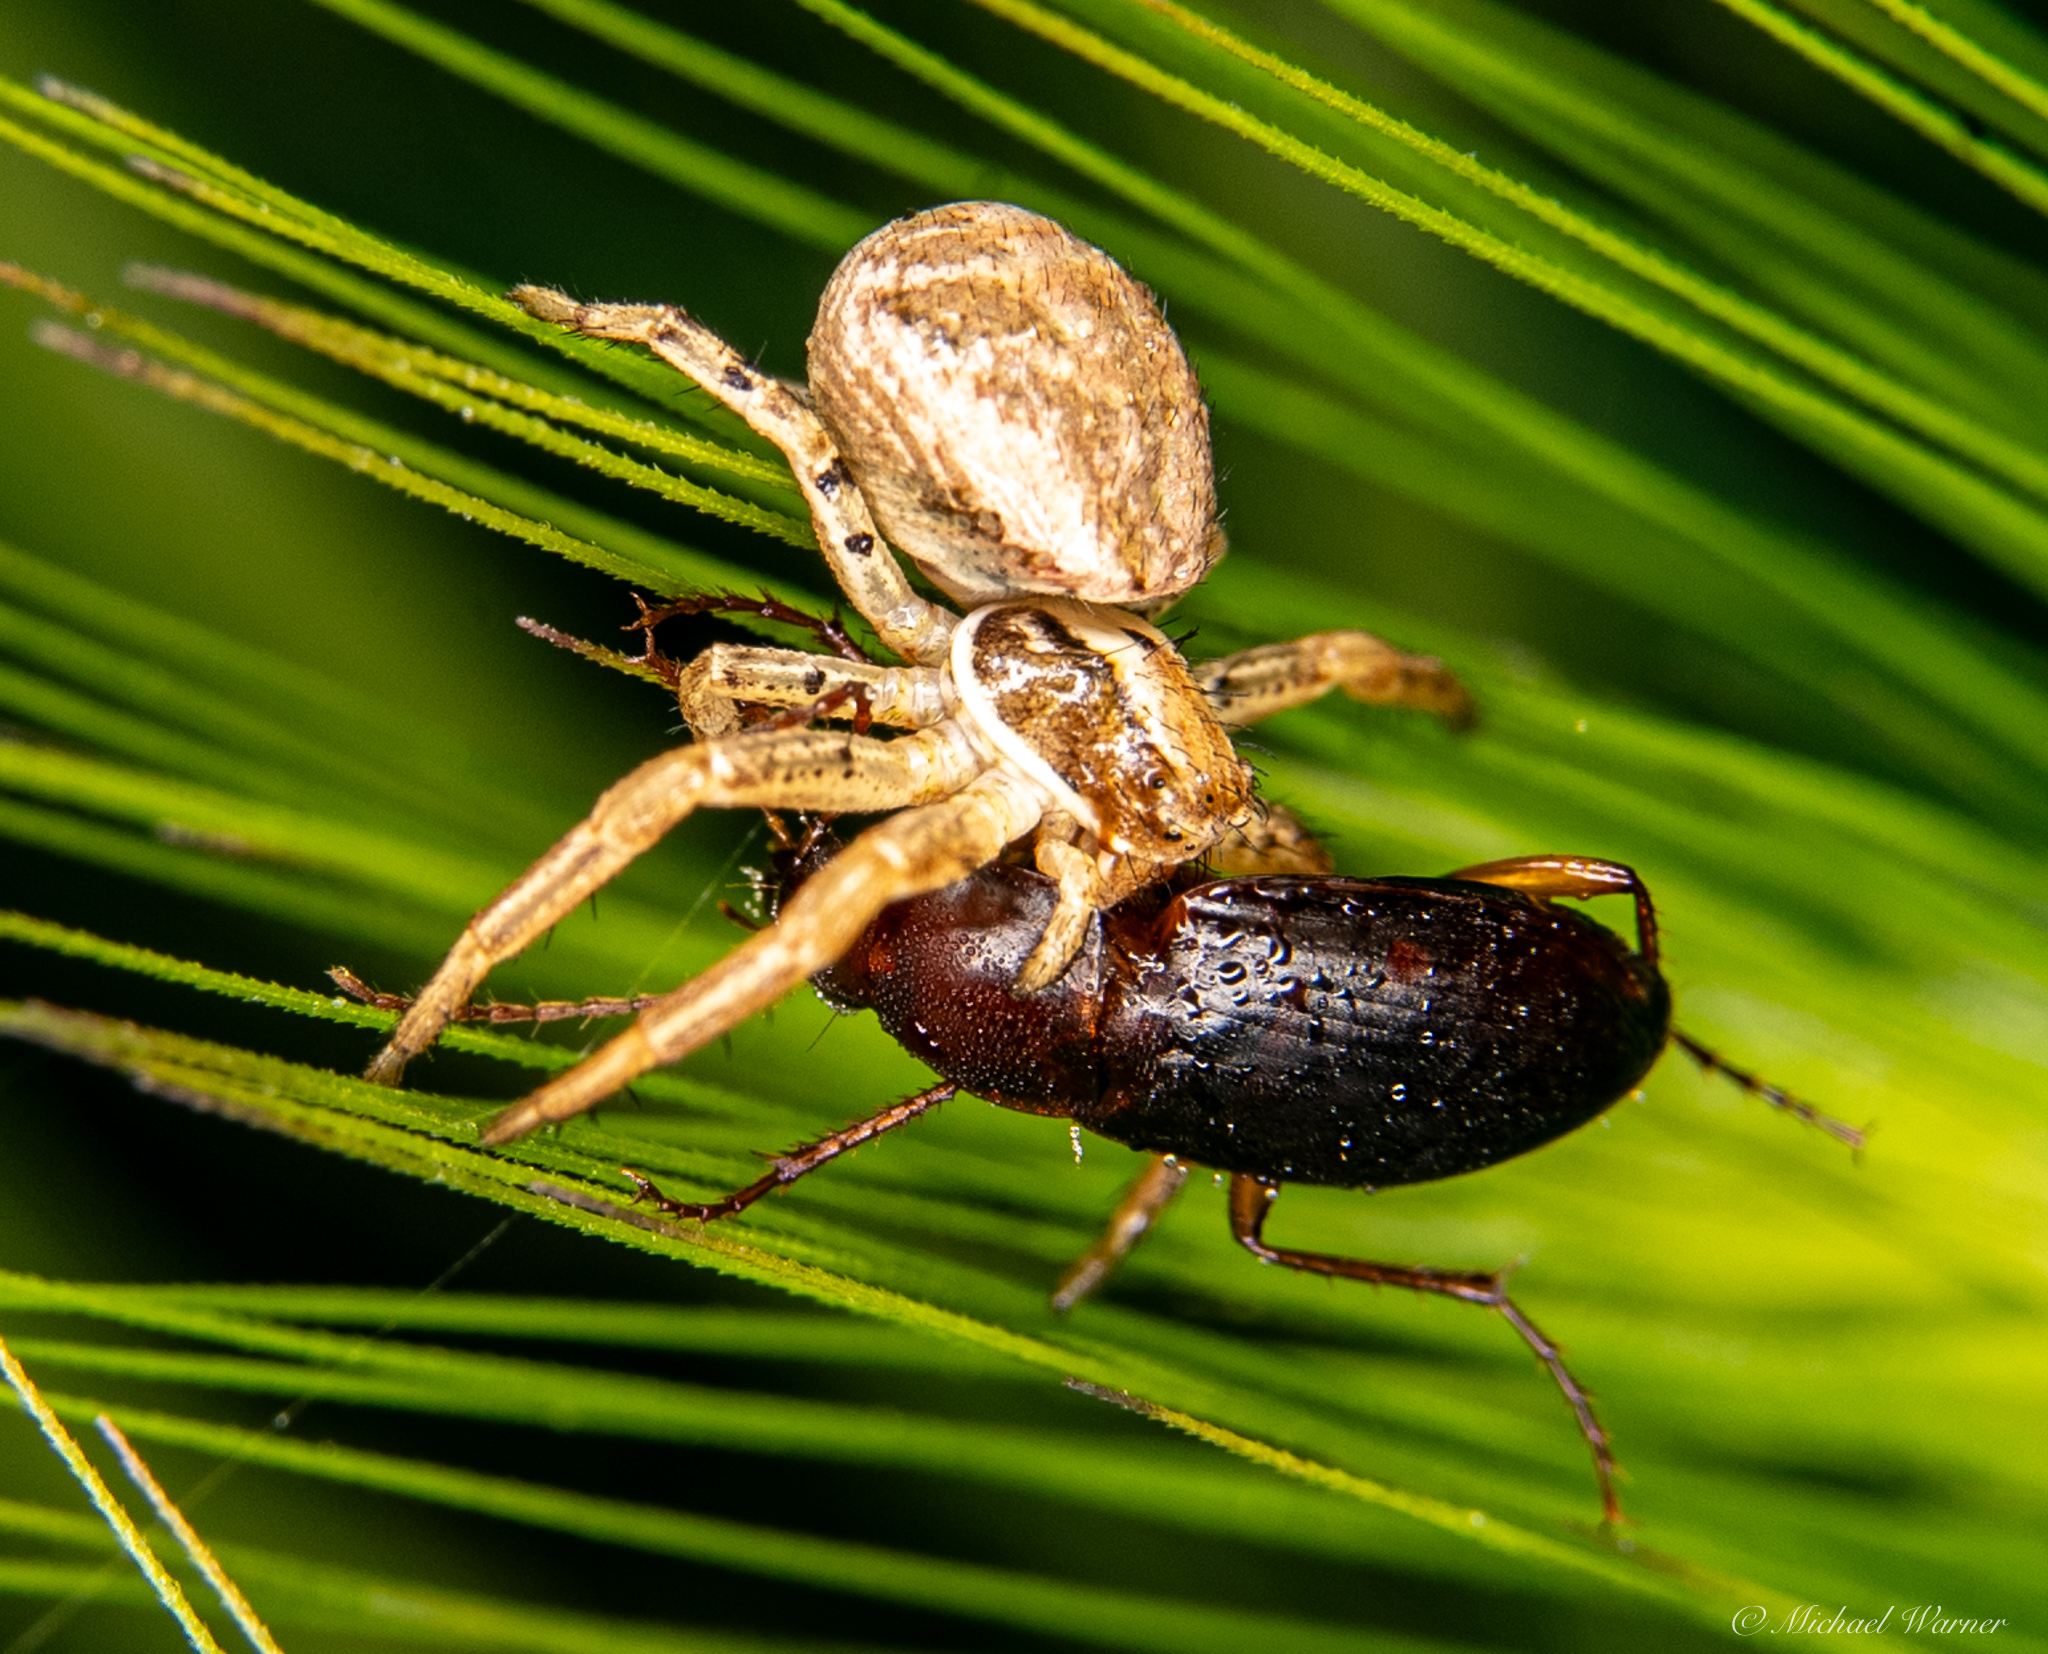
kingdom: Animalia
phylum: Arthropoda
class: Arachnida
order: Araneae
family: Thomisidae
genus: Xysticus
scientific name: Xysticus
